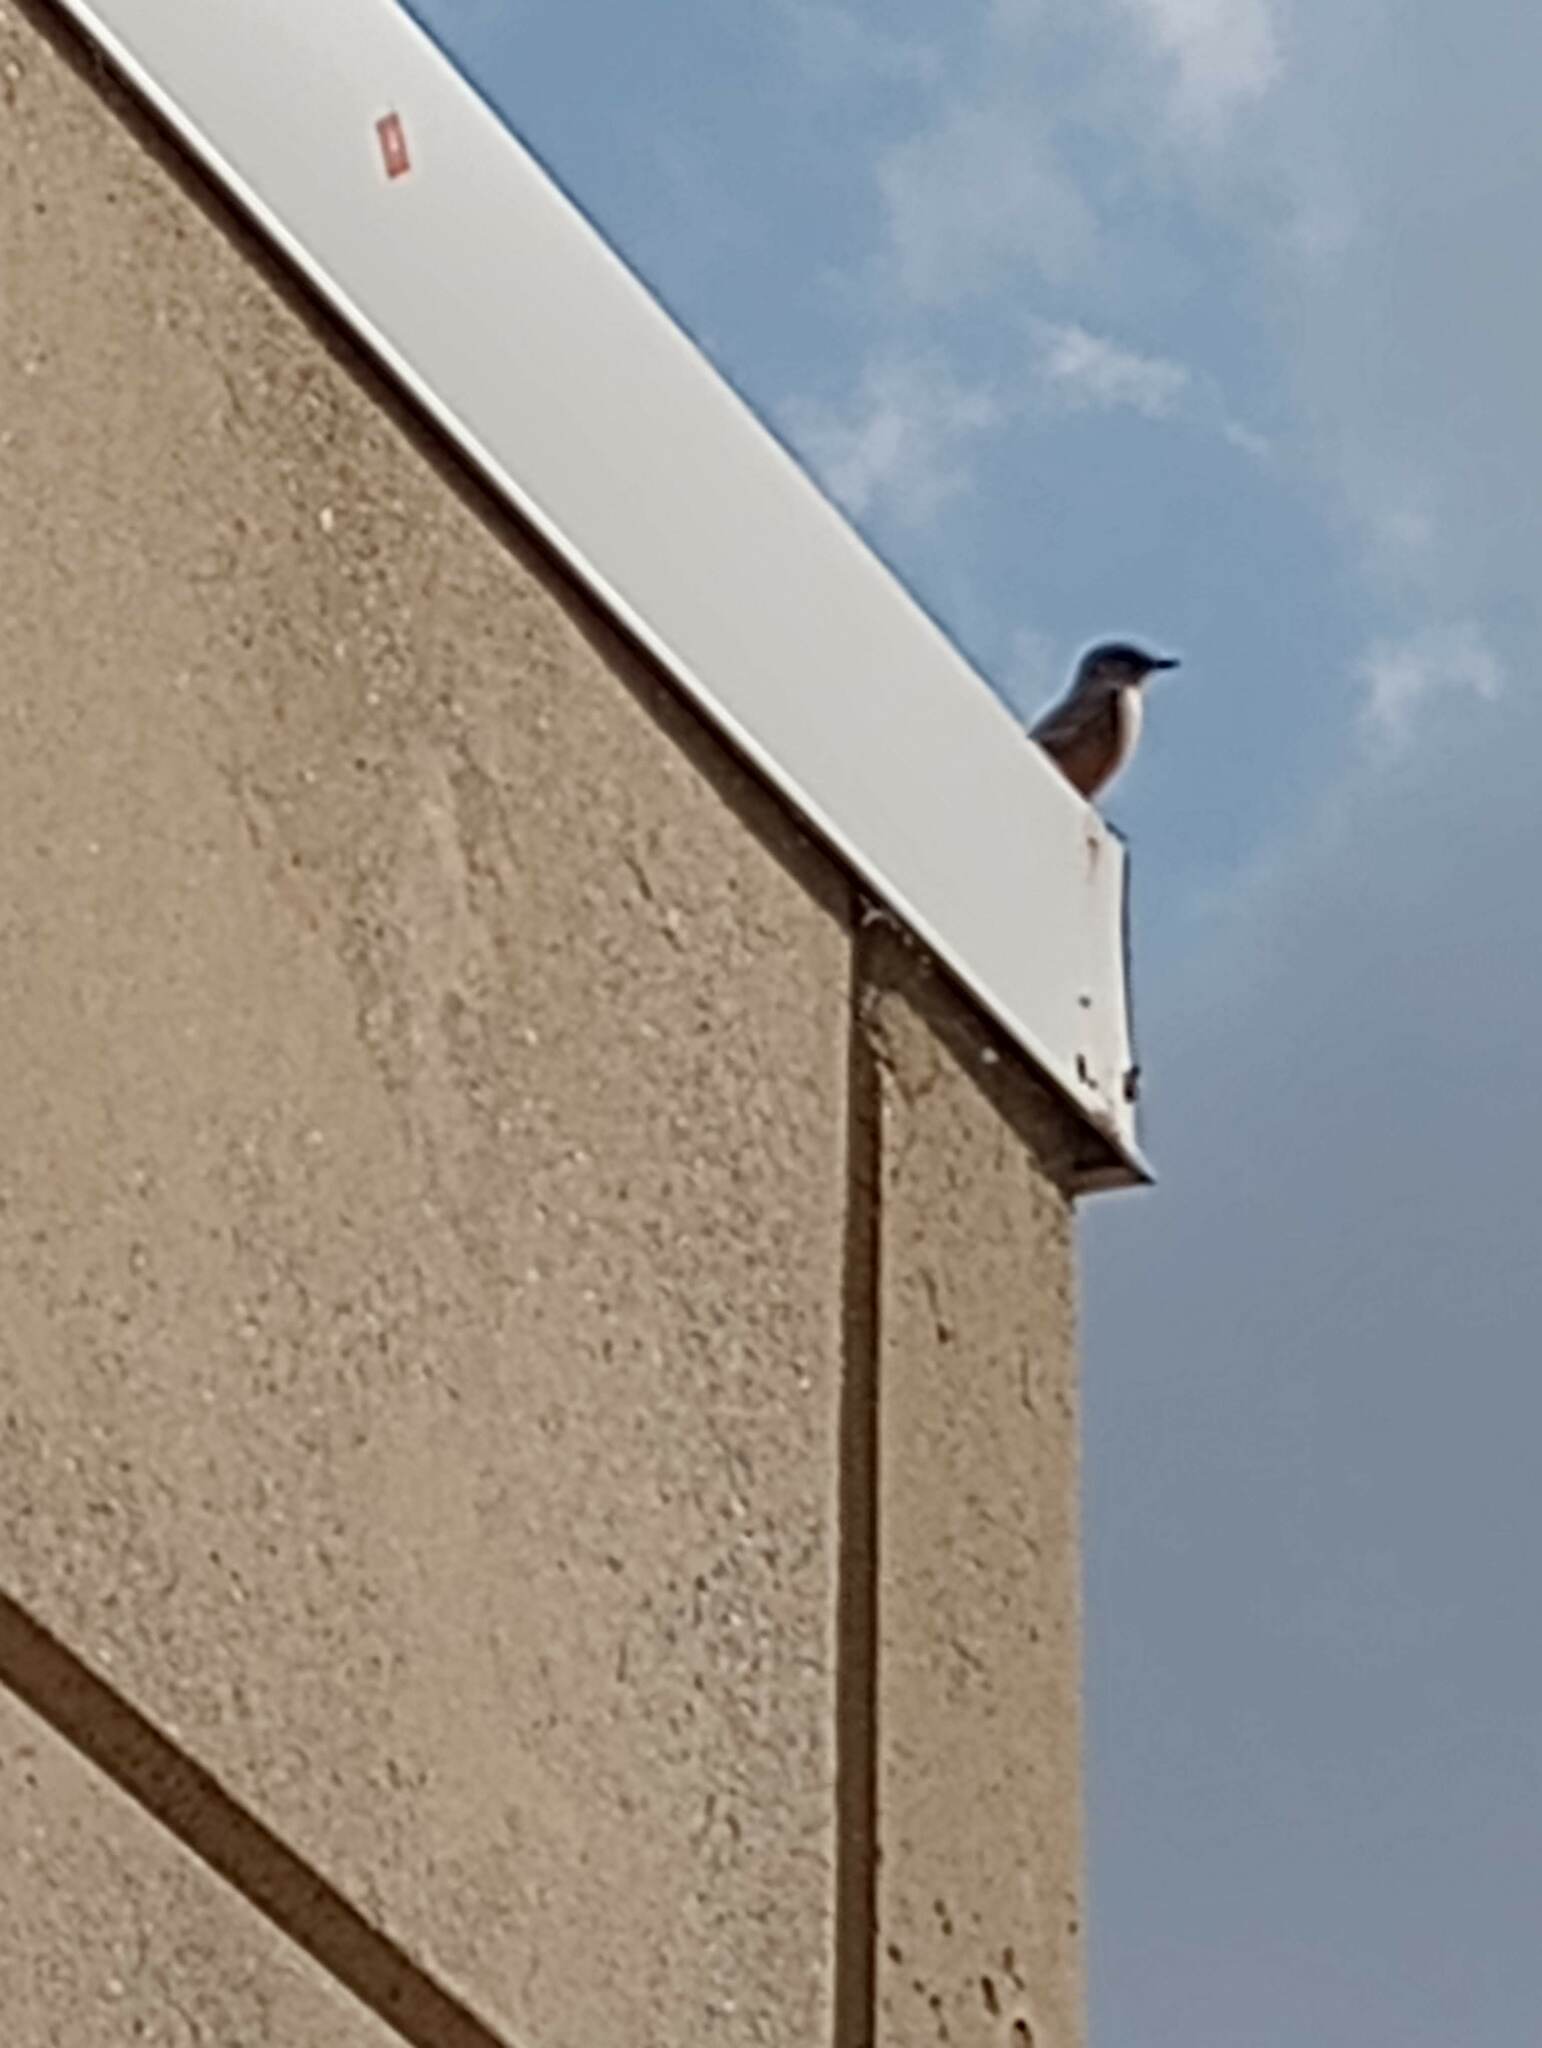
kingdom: Animalia
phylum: Chordata
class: Aves
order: Passeriformes
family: Tyrannidae
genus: Sayornis
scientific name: Sayornis saya
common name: Say's phoebe
